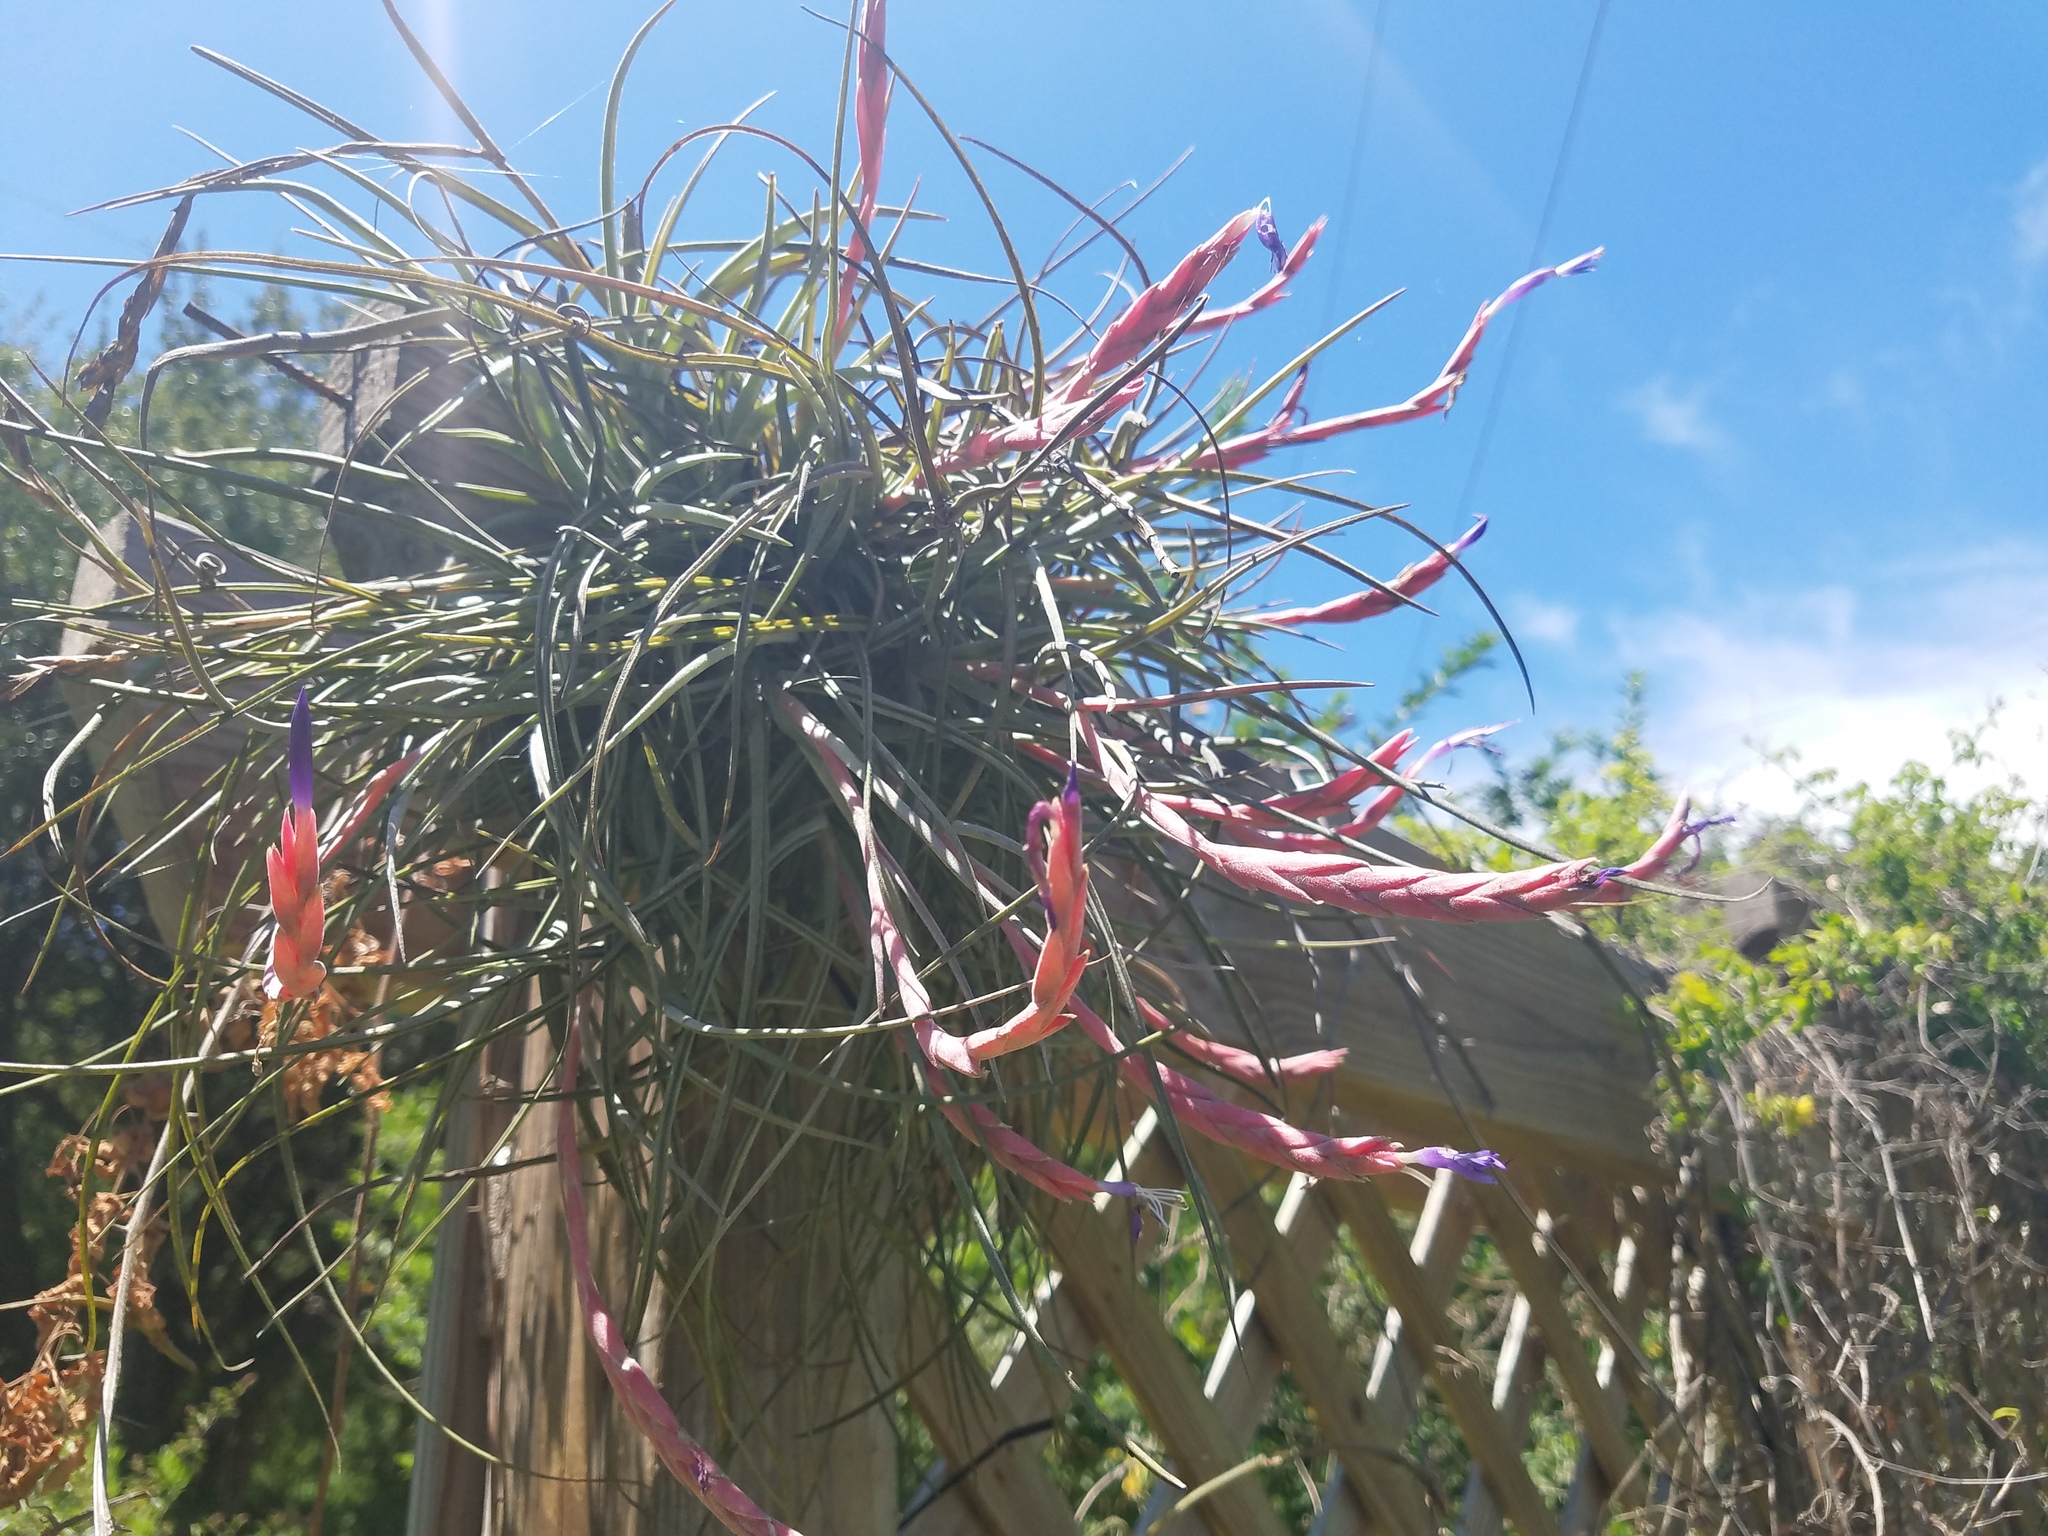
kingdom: Plantae
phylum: Tracheophyta
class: Liliopsida
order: Poales
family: Bromeliaceae
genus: Tillandsia
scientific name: Tillandsia baileyi
